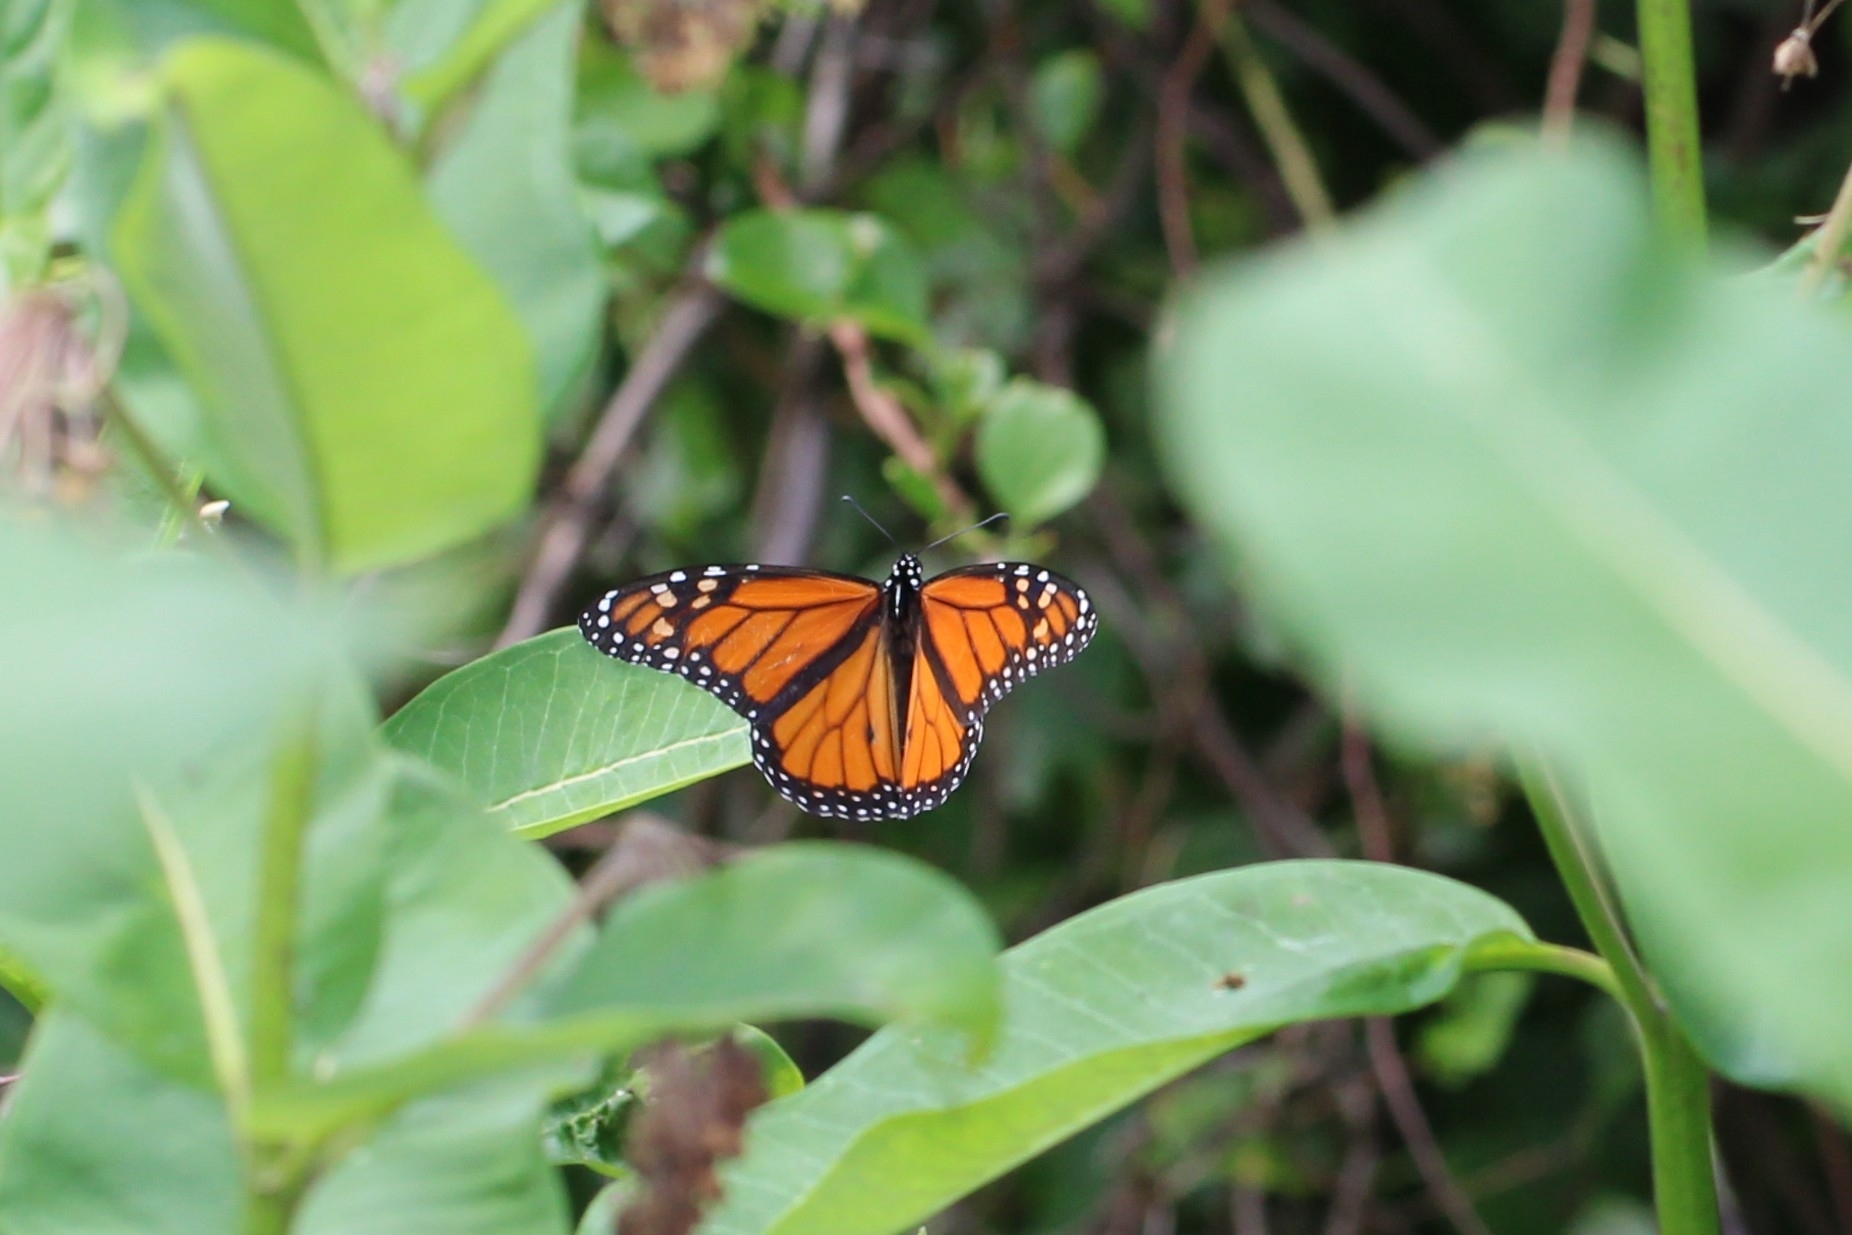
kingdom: Animalia
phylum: Arthropoda
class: Insecta
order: Lepidoptera
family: Nymphalidae
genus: Danaus
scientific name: Danaus plexippus
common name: Monarch
